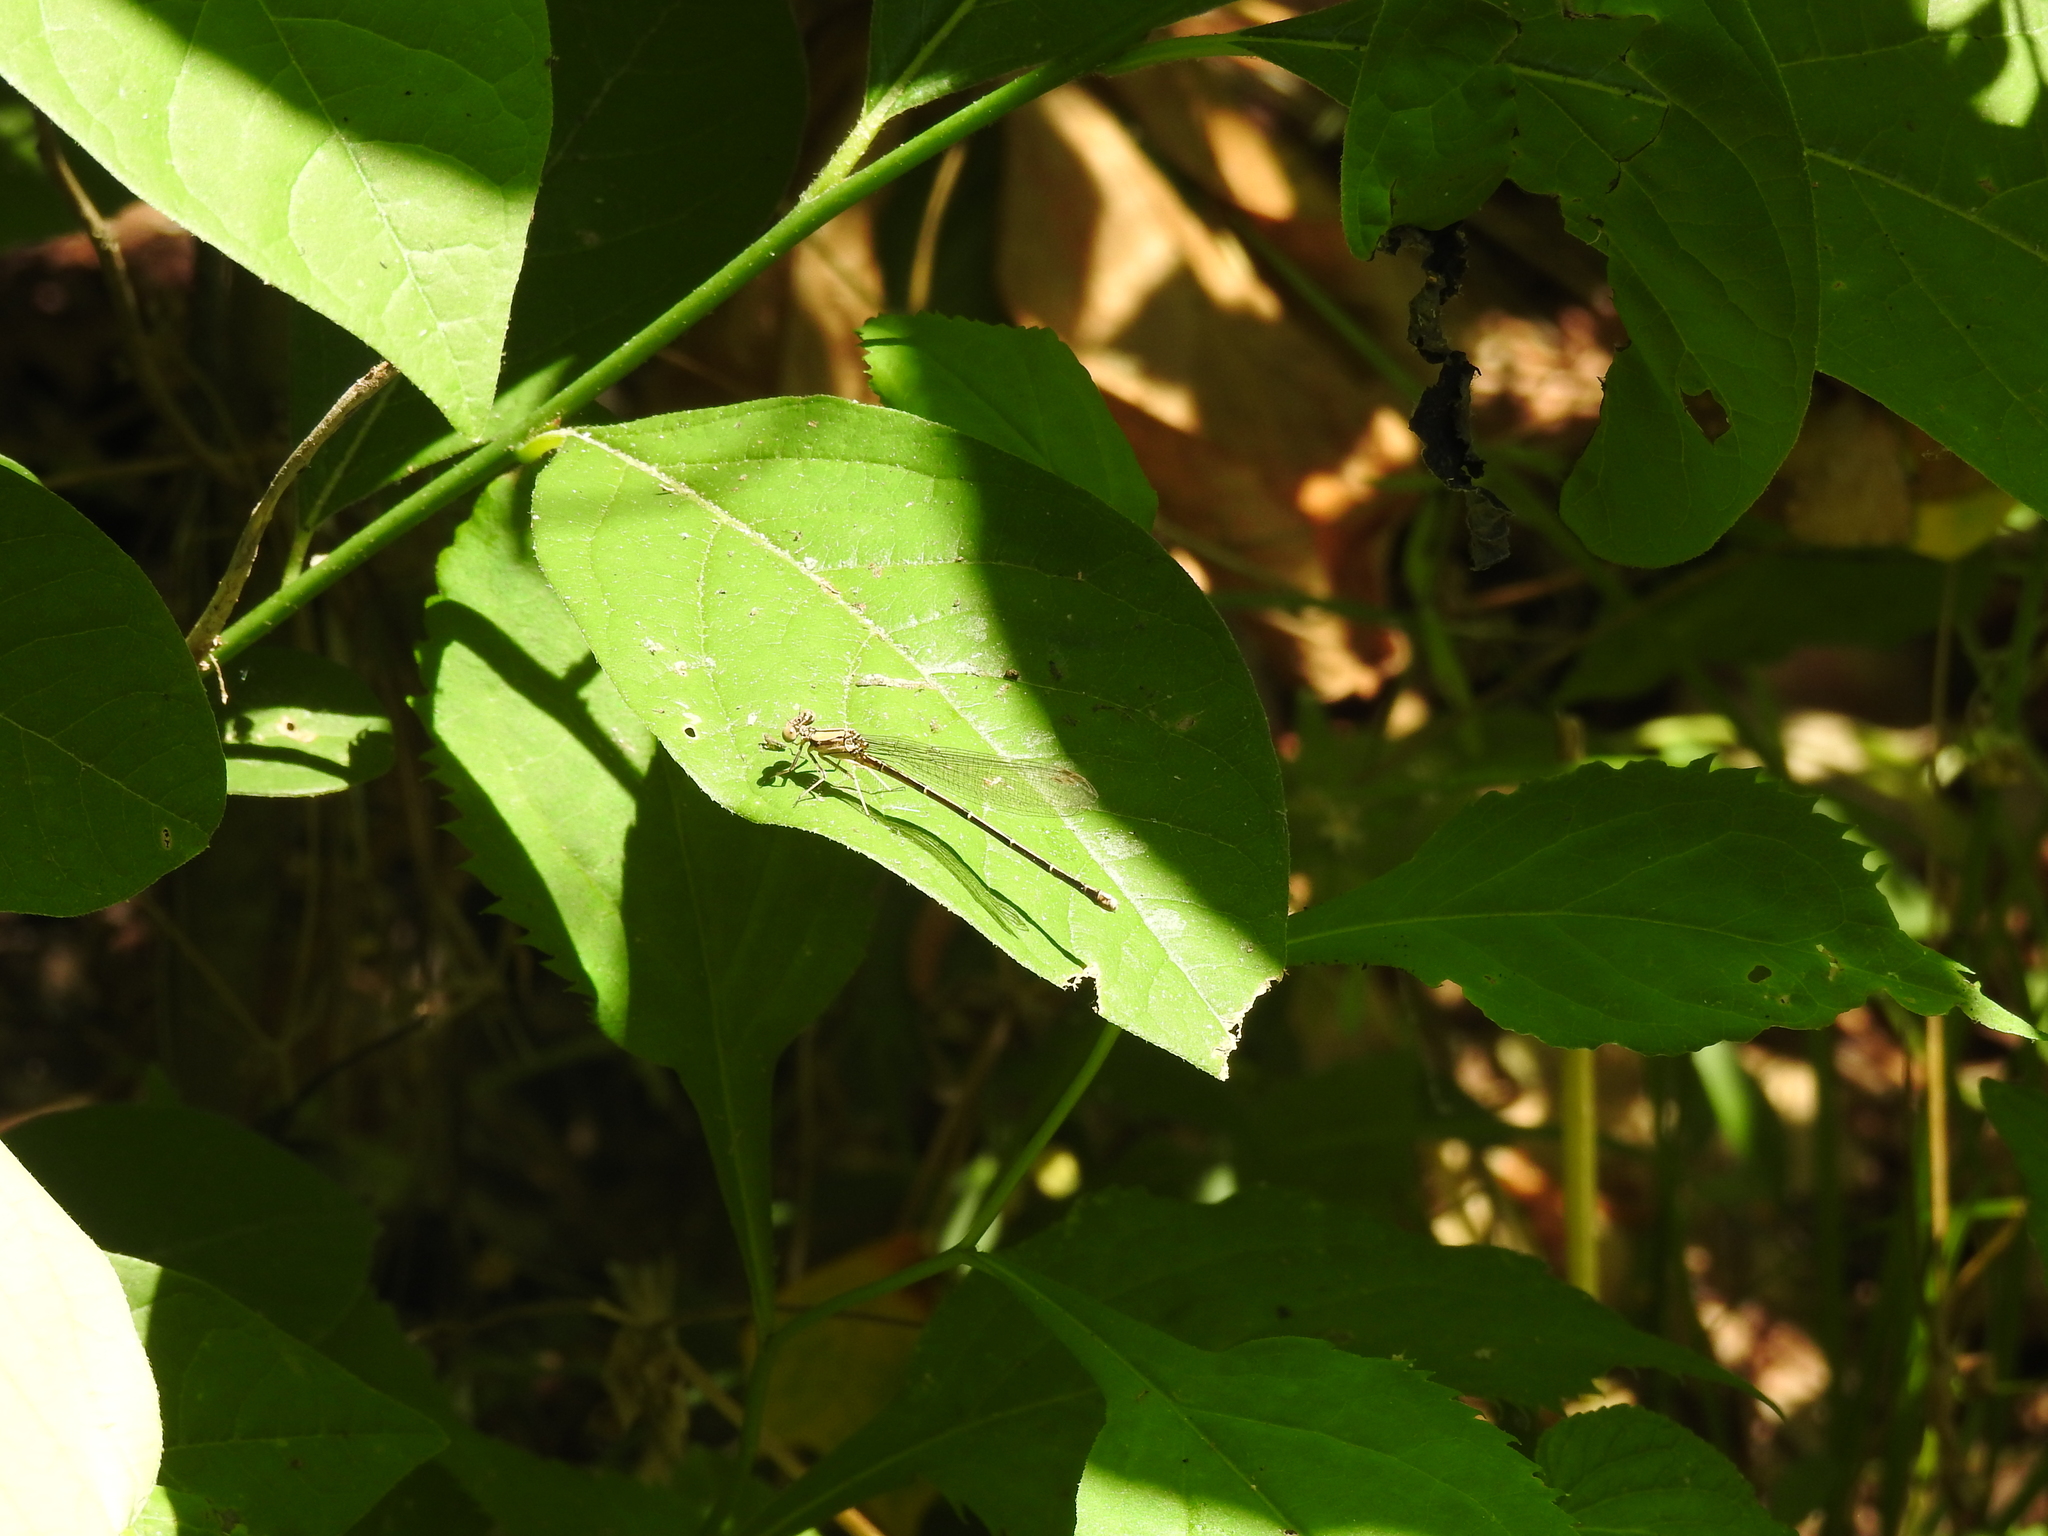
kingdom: Animalia
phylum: Arthropoda
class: Insecta
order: Odonata
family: Coenagrionidae
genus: Argia
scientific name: Argia tibialis
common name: Blue-tipped dancer
